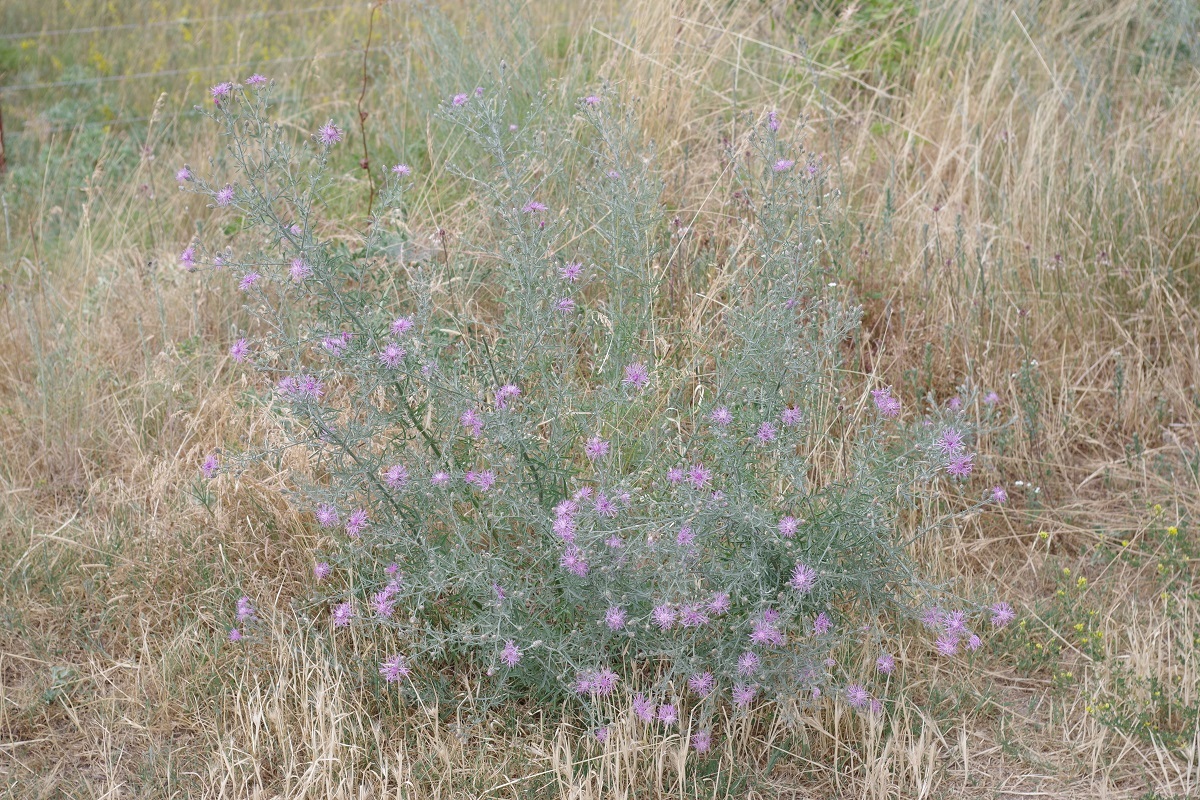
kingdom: Plantae
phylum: Tracheophyta
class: Magnoliopsida
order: Asterales
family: Asteraceae
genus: Centaurea
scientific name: Centaurea stoebe
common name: Spotted knapweed
